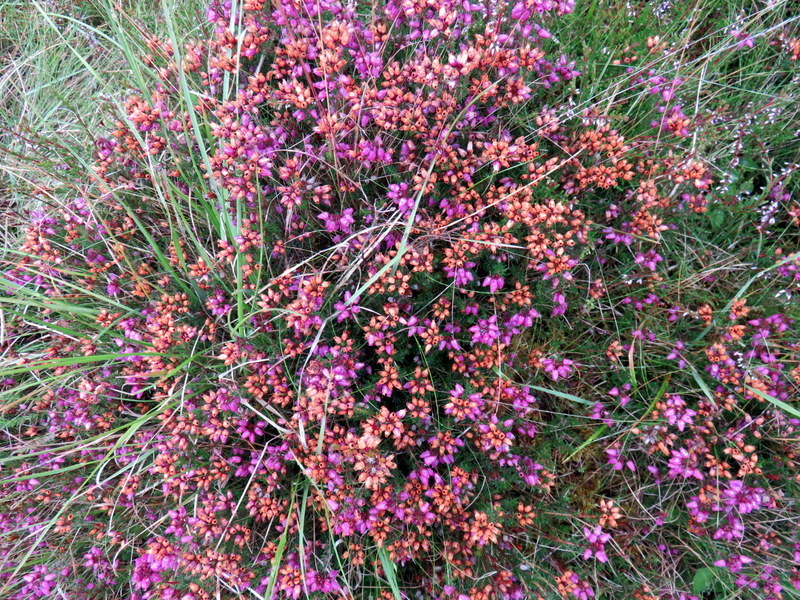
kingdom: Plantae
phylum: Tracheophyta
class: Magnoliopsida
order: Ericales
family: Ericaceae
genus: Erica
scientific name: Erica cinerea
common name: Bell heather
